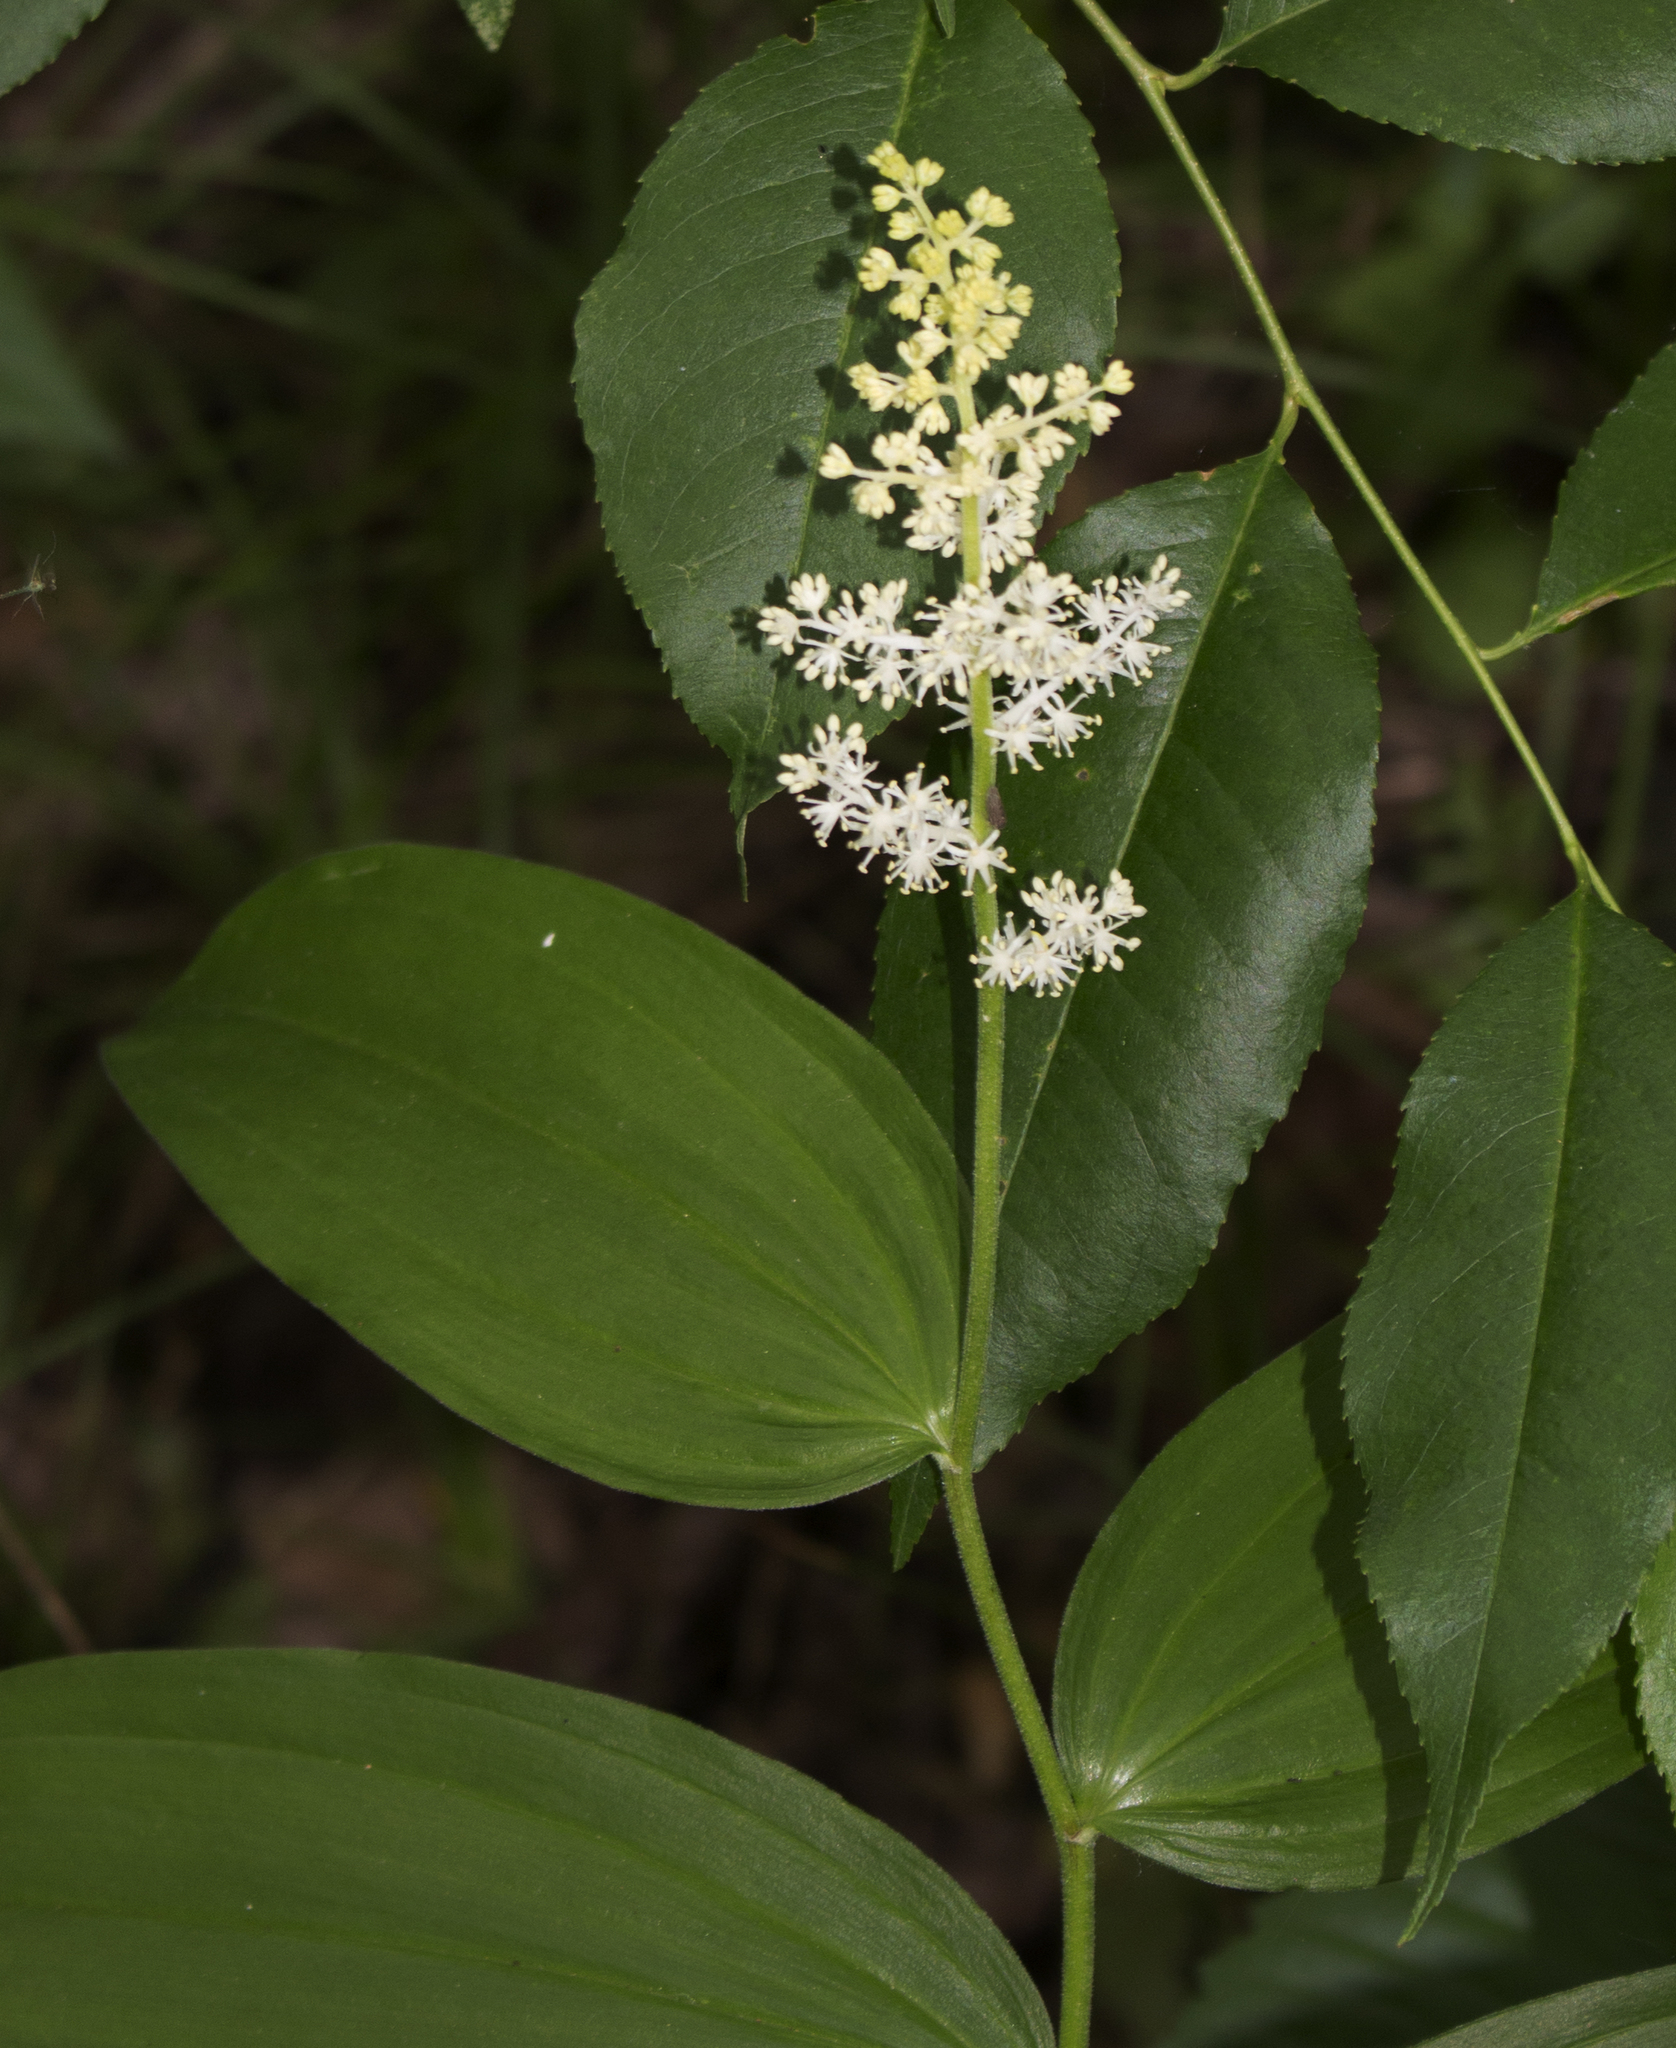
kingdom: Plantae
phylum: Tracheophyta
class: Liliopsida
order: Asparagales
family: Asparagaceae
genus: Maianthemum
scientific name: Maianthemum racemosum
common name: False spikenard
